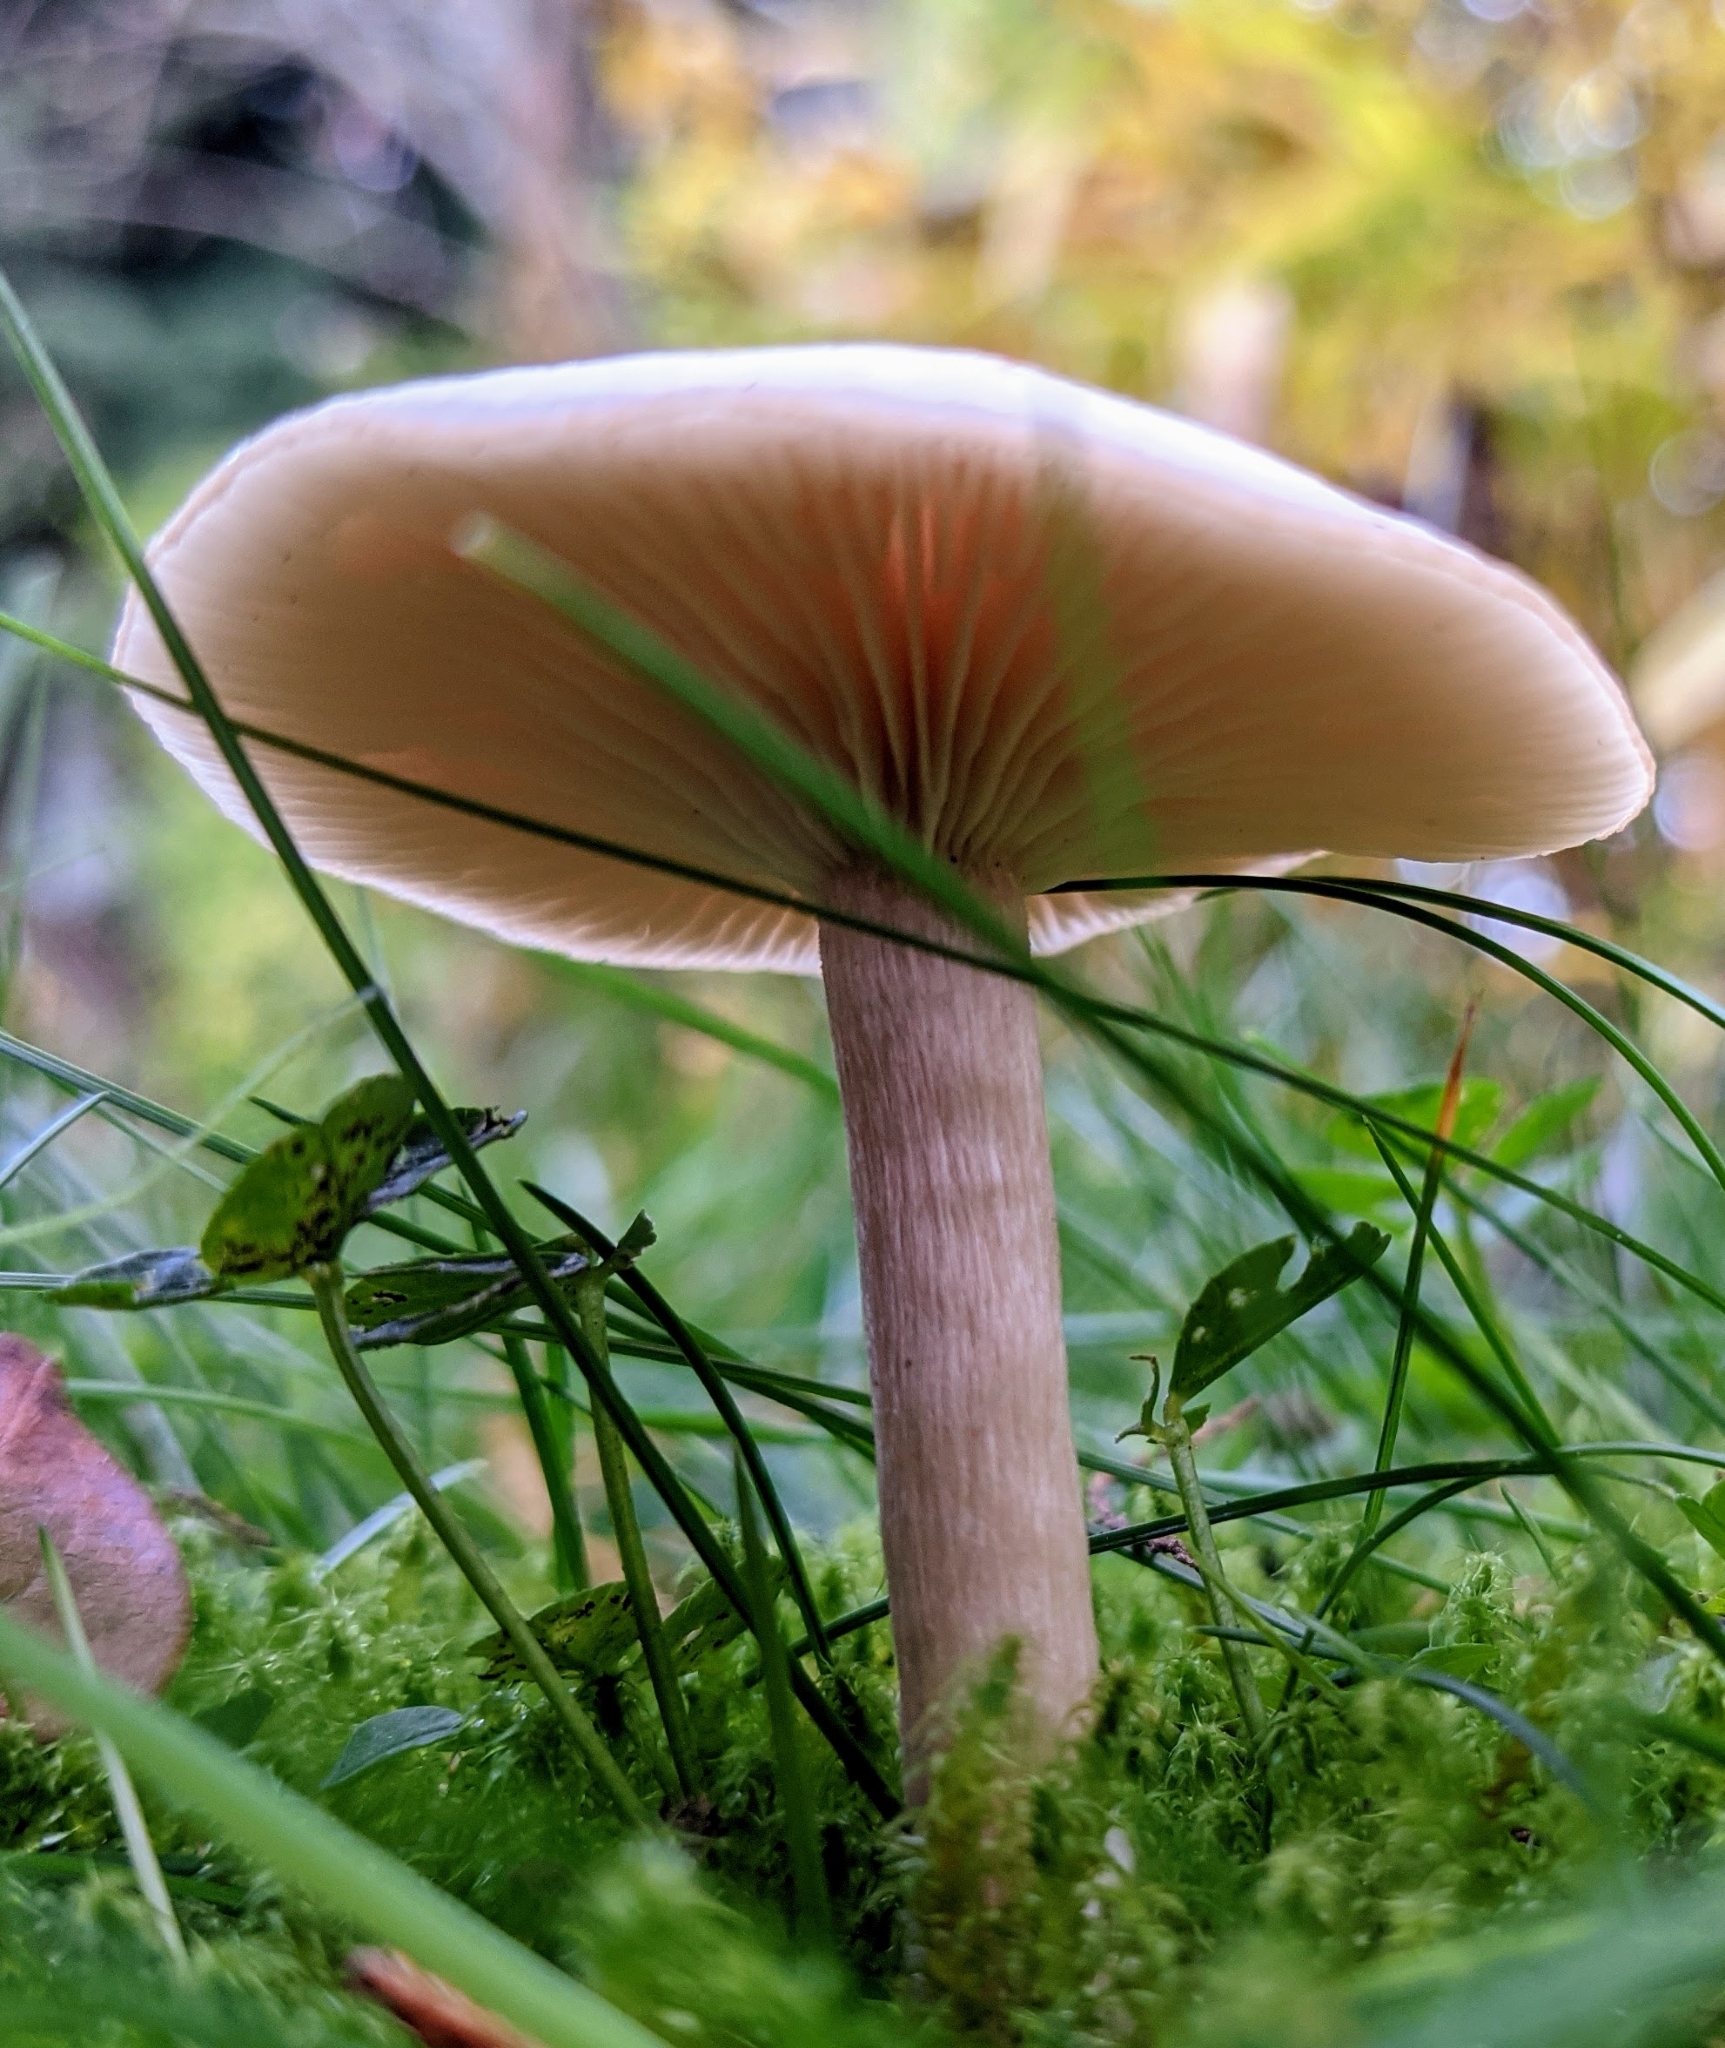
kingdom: Fungi
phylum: Basidiomycota
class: Agaricomycetes
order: Agaricales
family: Tricholomataceae
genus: Clitocybe
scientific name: Clitocybe fragrans
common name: Fragrant funnel
